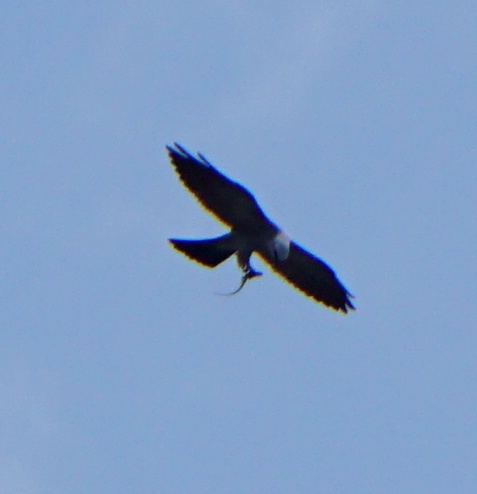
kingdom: Animalia
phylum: Chordata
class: Aves
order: Accipitriformes
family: Accipitridae
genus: Ictinia
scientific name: Ictinia mississippiensis
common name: Mississippi kite
